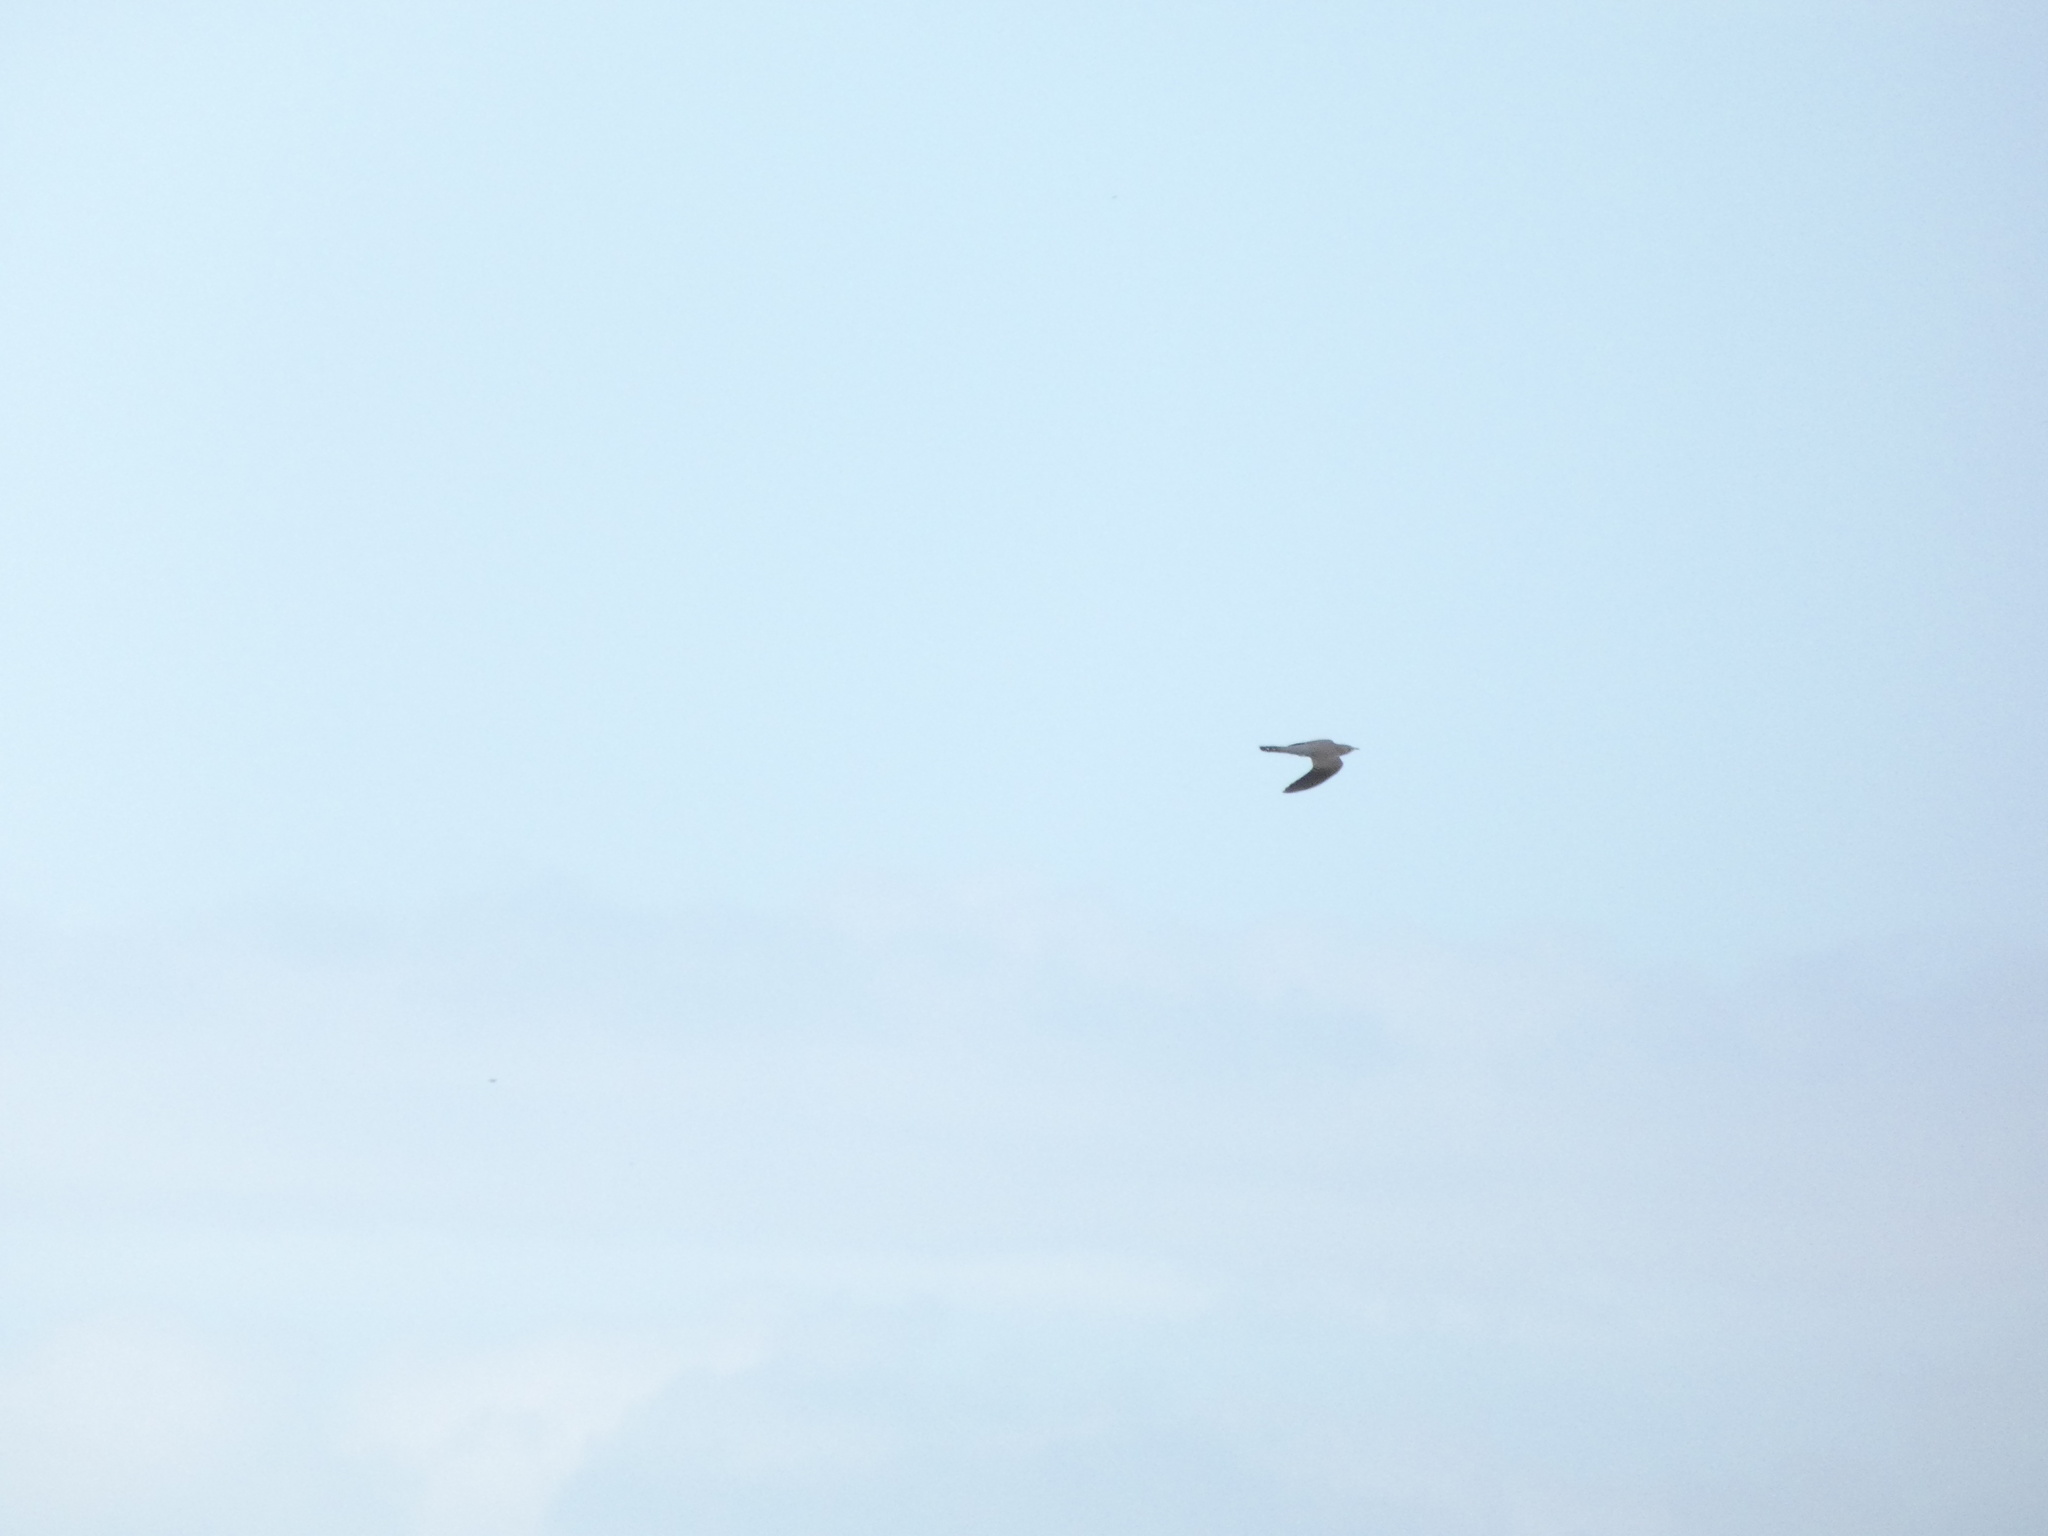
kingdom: Animalia
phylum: Chordata
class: Aves
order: Cuculiformes
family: Cuculidae
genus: Cuculus
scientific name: Cuculus canorus
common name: Common cuckoo
